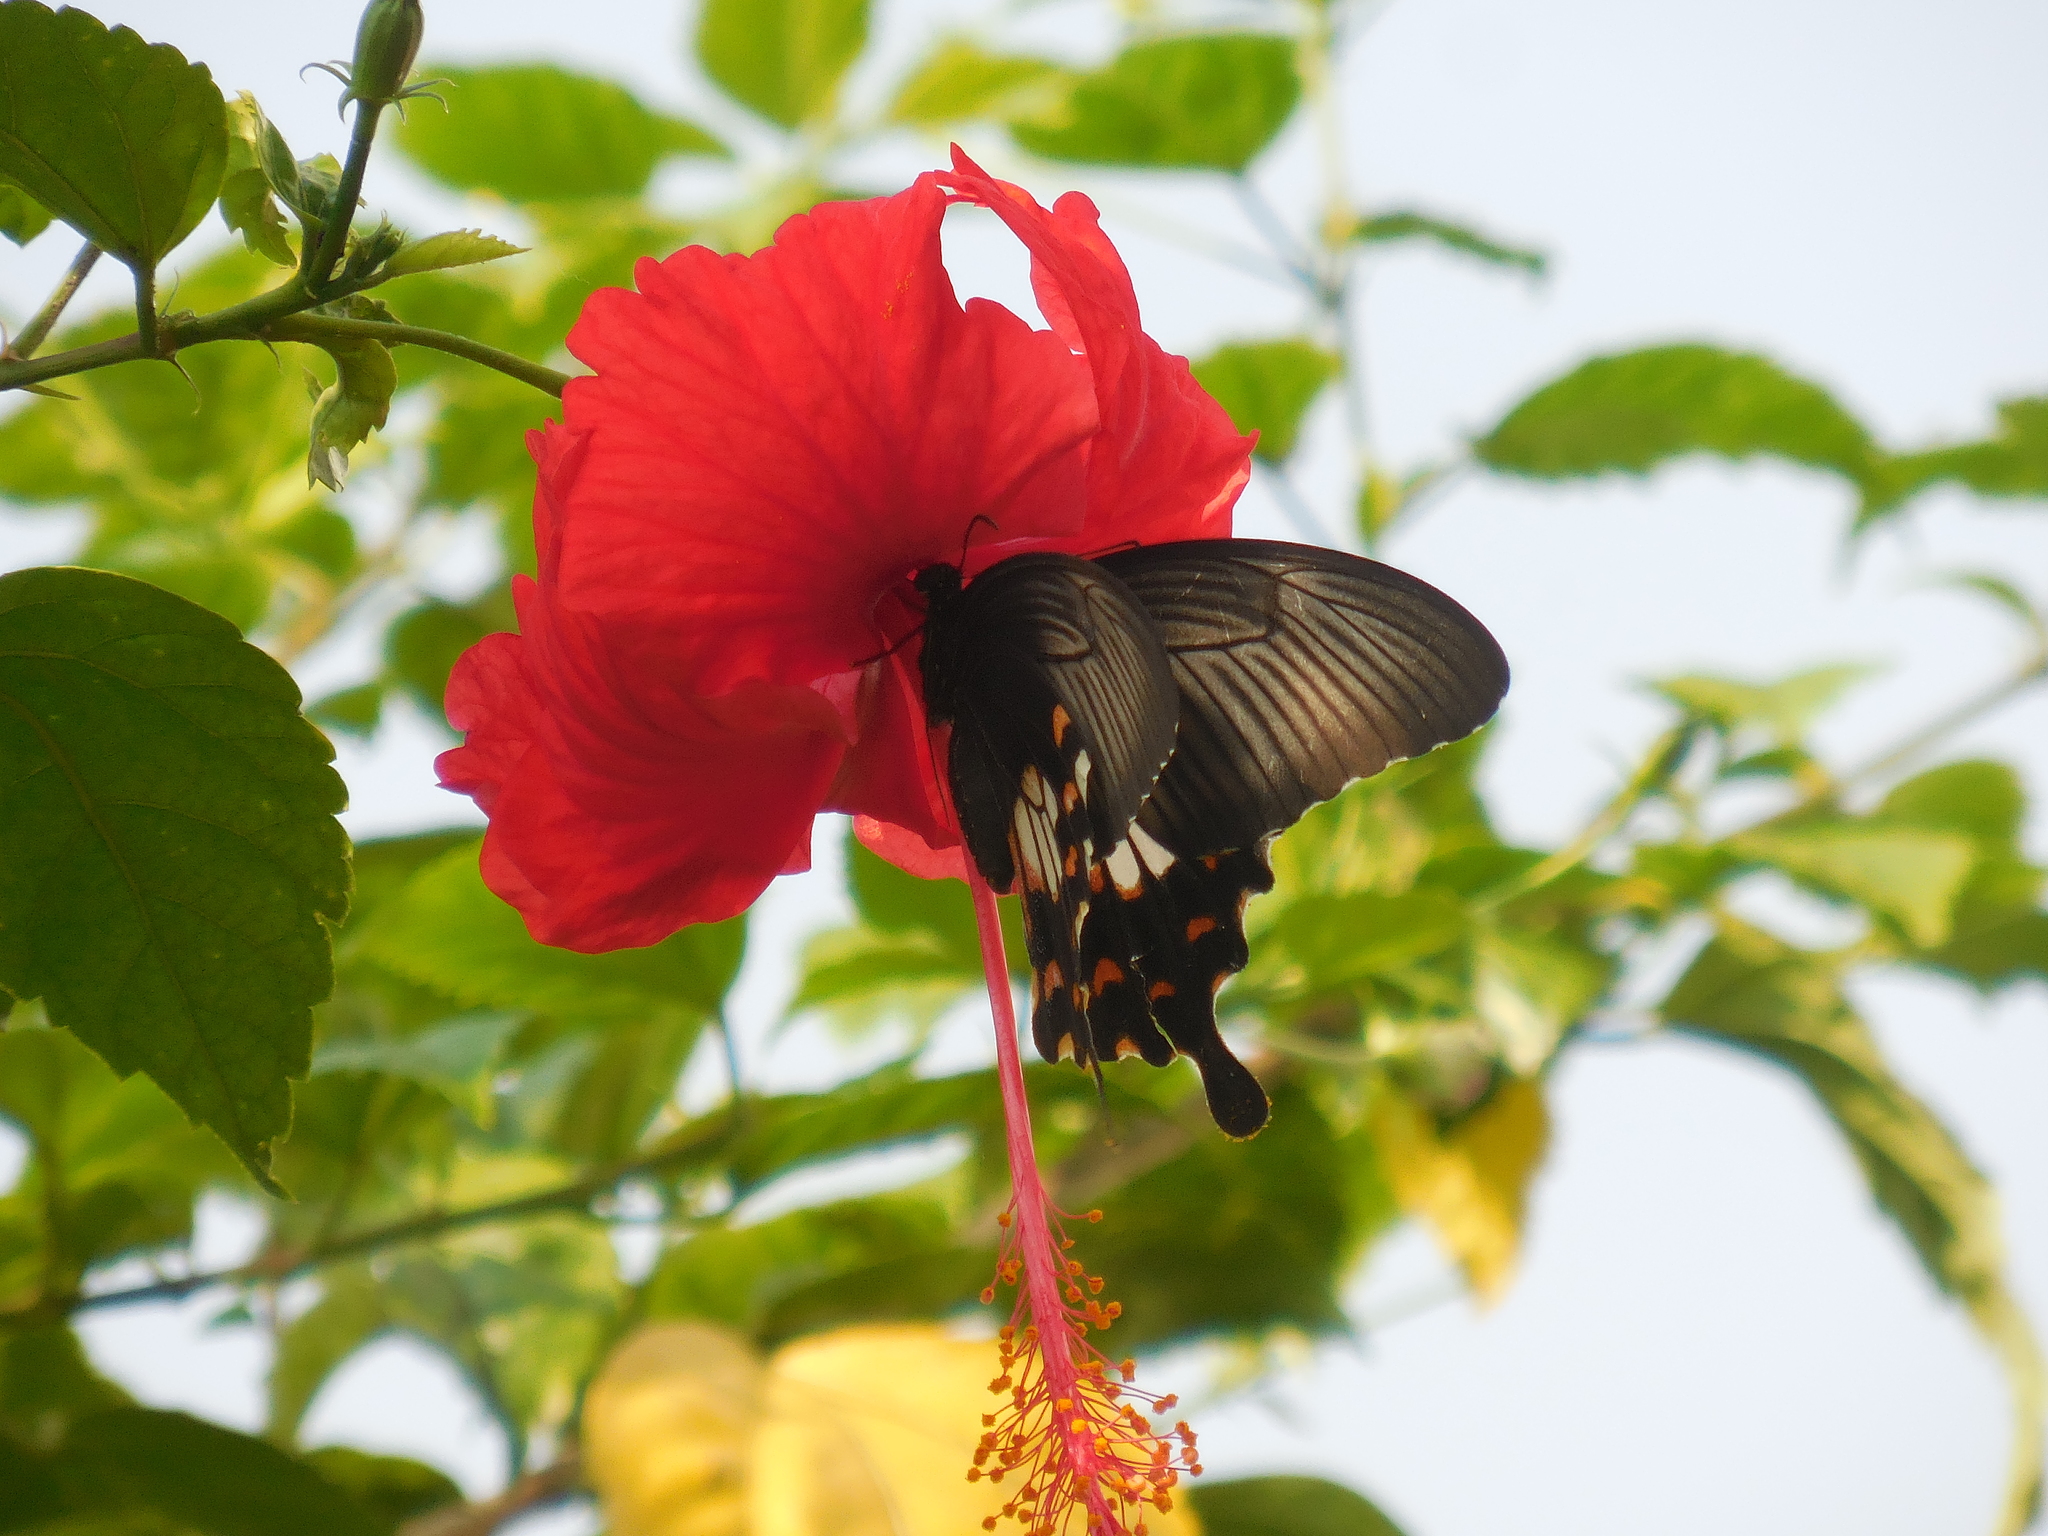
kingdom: Animalia
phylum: Arthropoda
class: Insecta
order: Lepidoptera
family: Papilionidae
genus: Papilio
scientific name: Papilio polytes
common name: Common mormon
